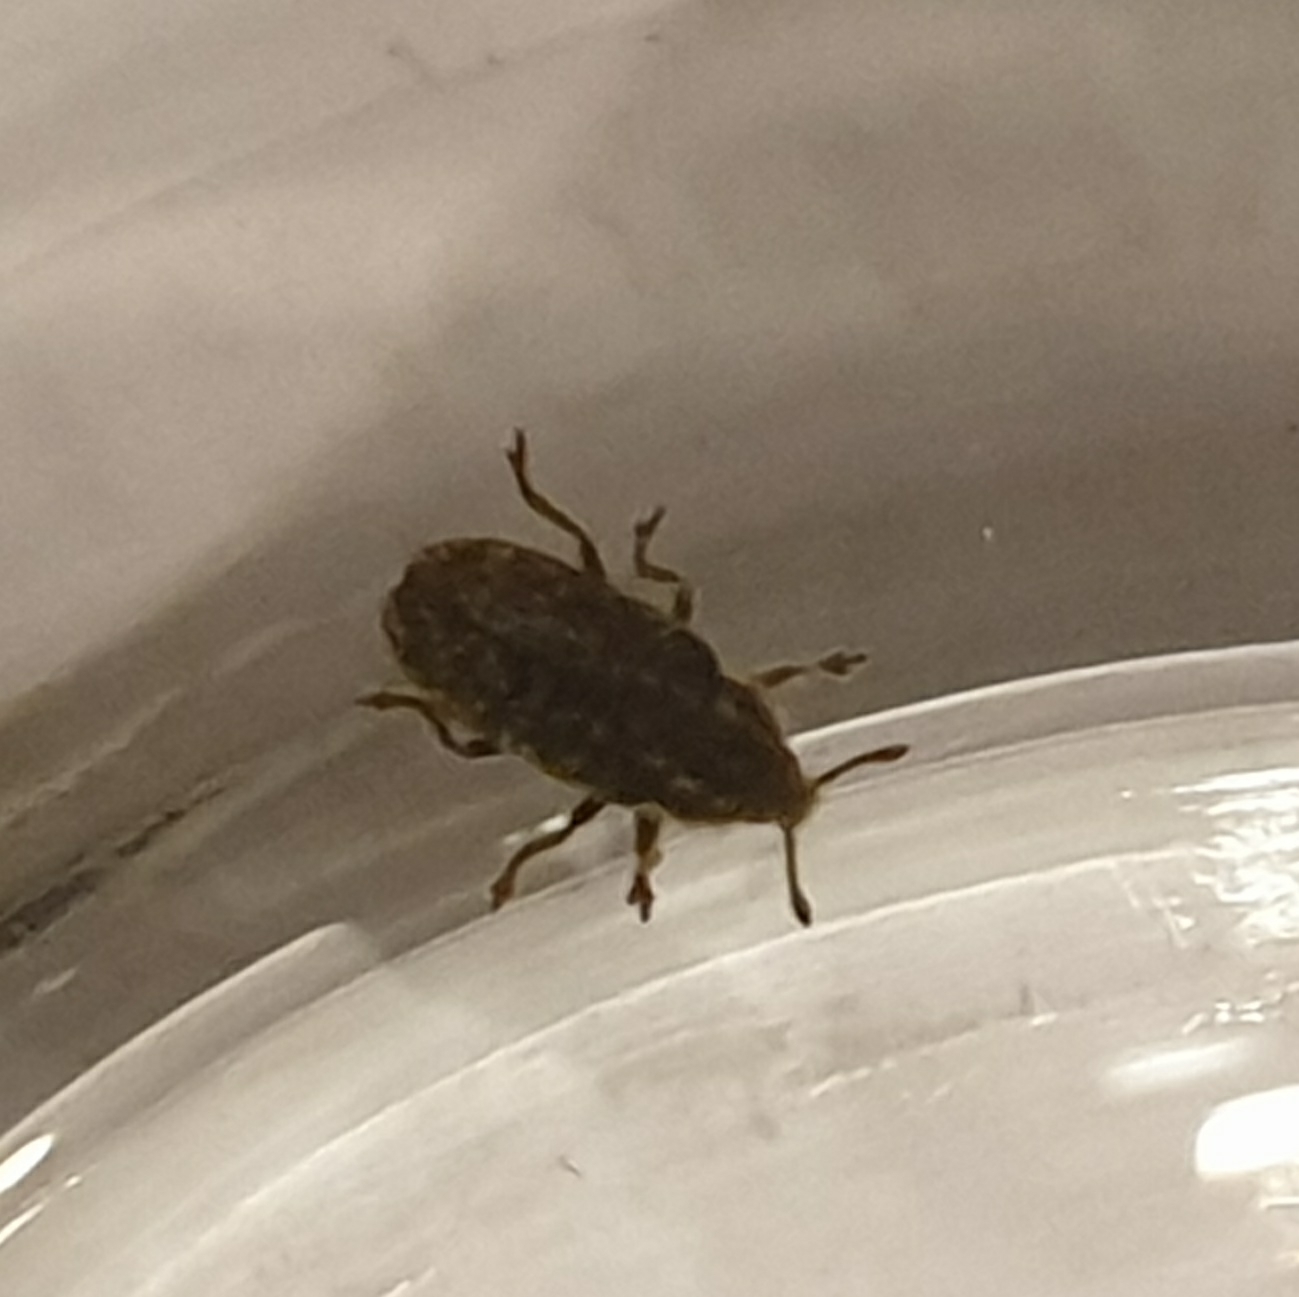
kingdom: Animalia
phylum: Arthropoda
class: Insecta
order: Coleoptera
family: Curculionidae
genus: Rhinocyllus
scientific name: Rhinocyllus conicus
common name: Weevil
